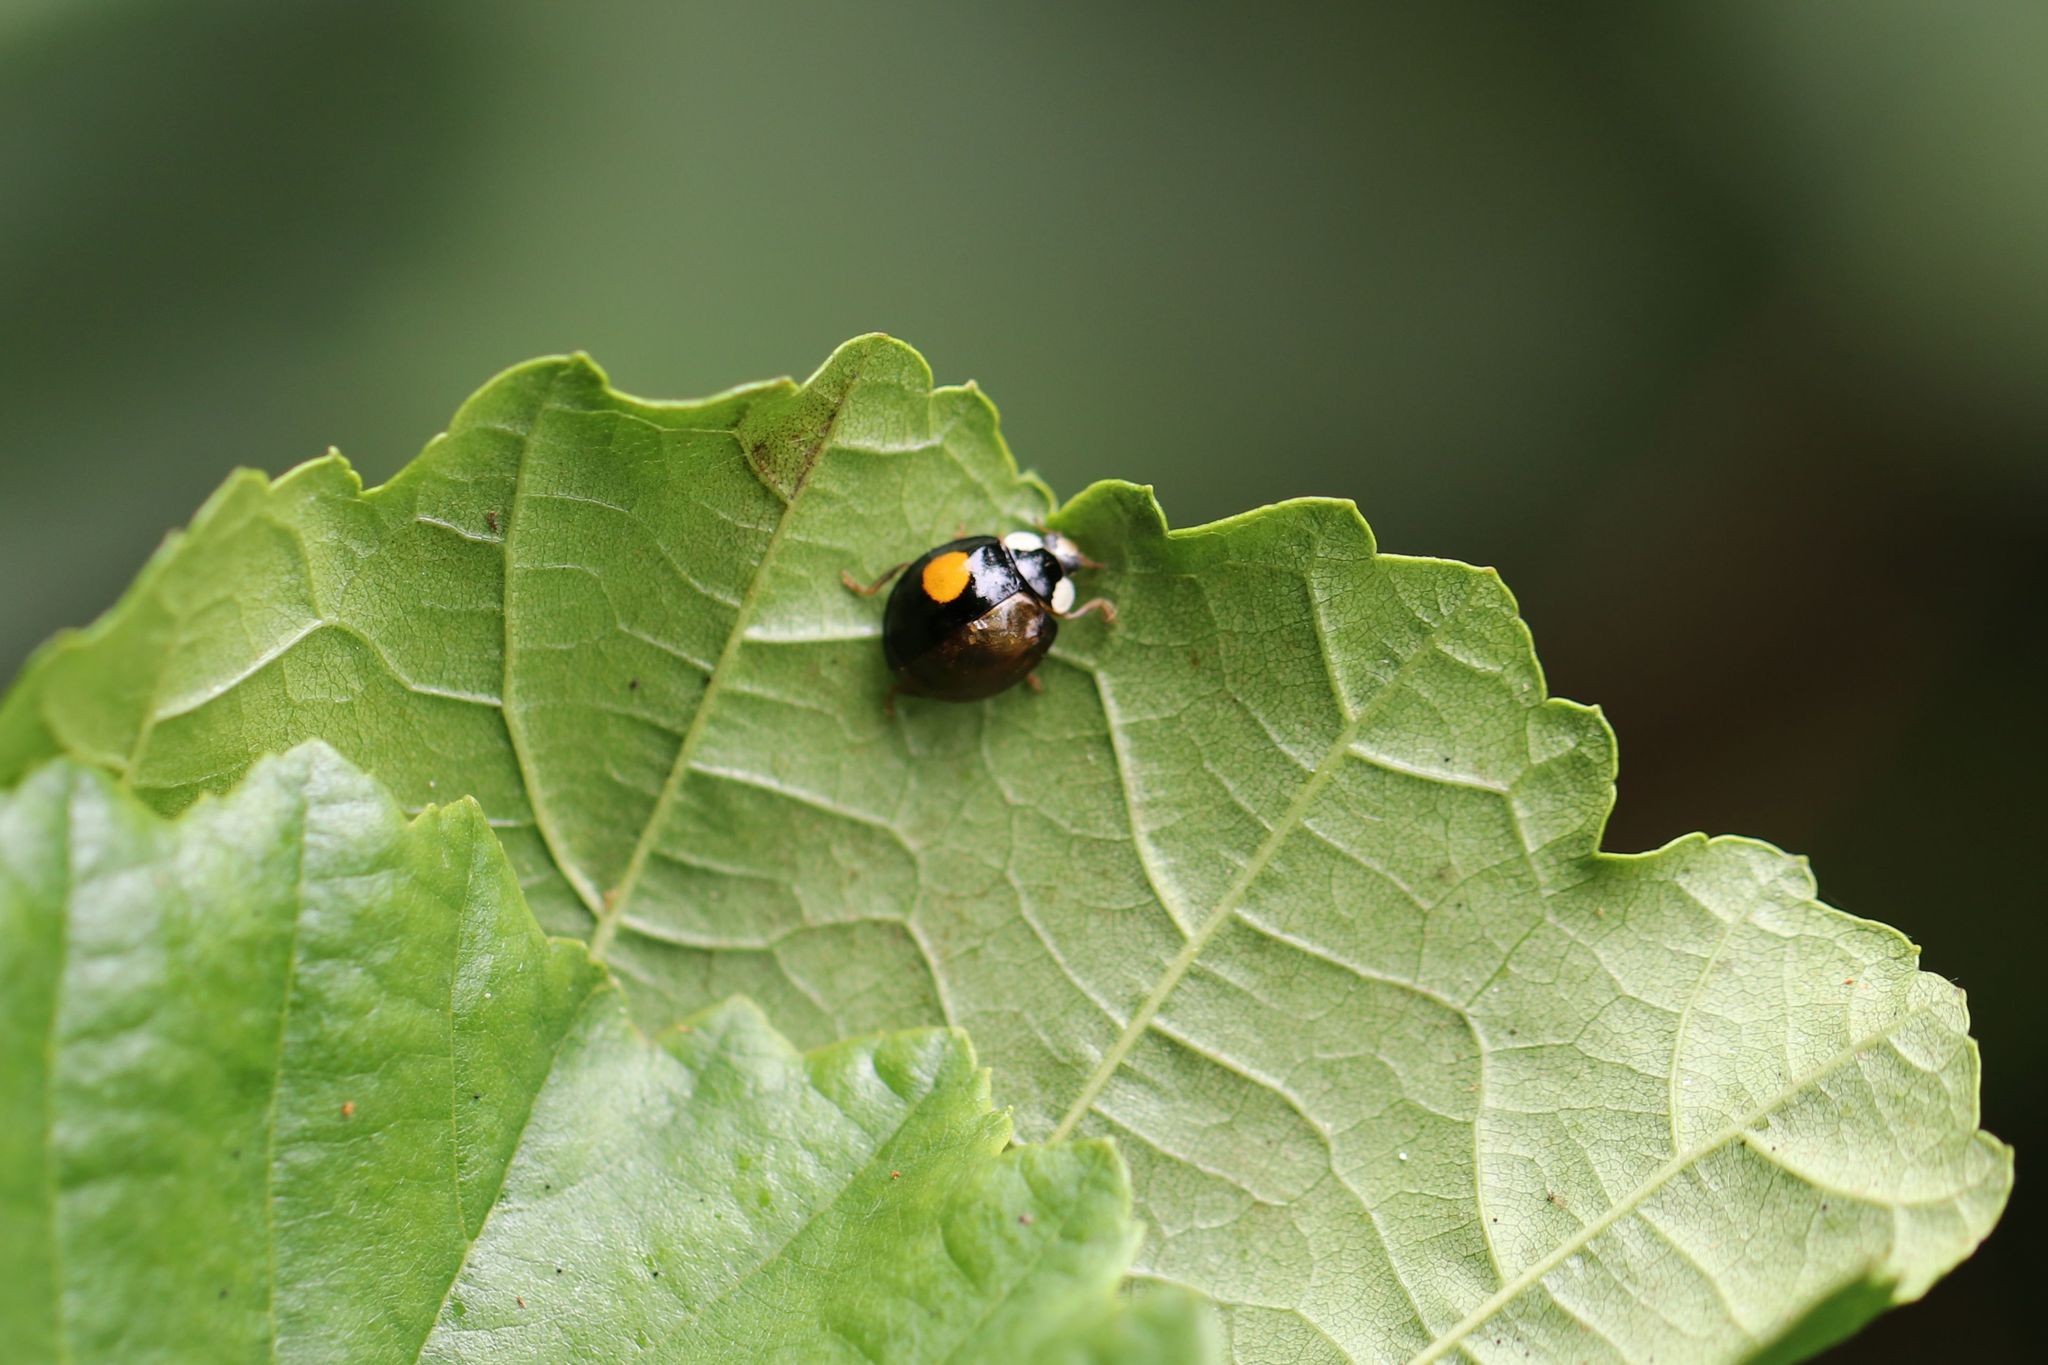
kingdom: Animalia
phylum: Arthropoda
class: Insecta
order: Coleoptera
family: Coccinellidae
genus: Harmonia
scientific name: Harmonia axyridis
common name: Harlequin ladybird
